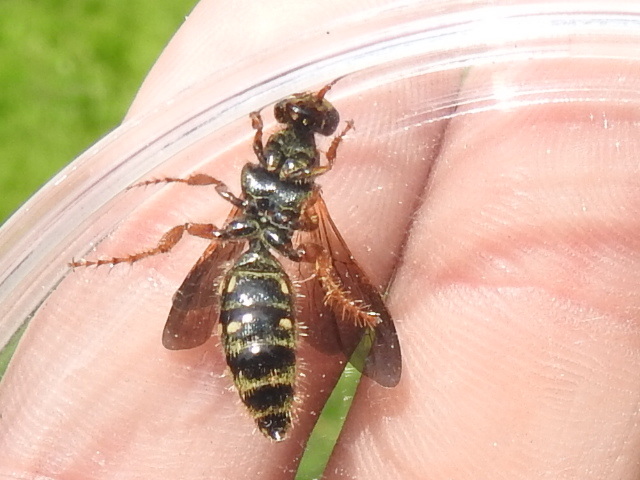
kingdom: Animalia
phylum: Arthropoda
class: Insecta
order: Hymenoptera
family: Tiphiidae
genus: Myzinum
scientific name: Myzinum quinquecinctum
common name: Five-banded thynnid wasp
